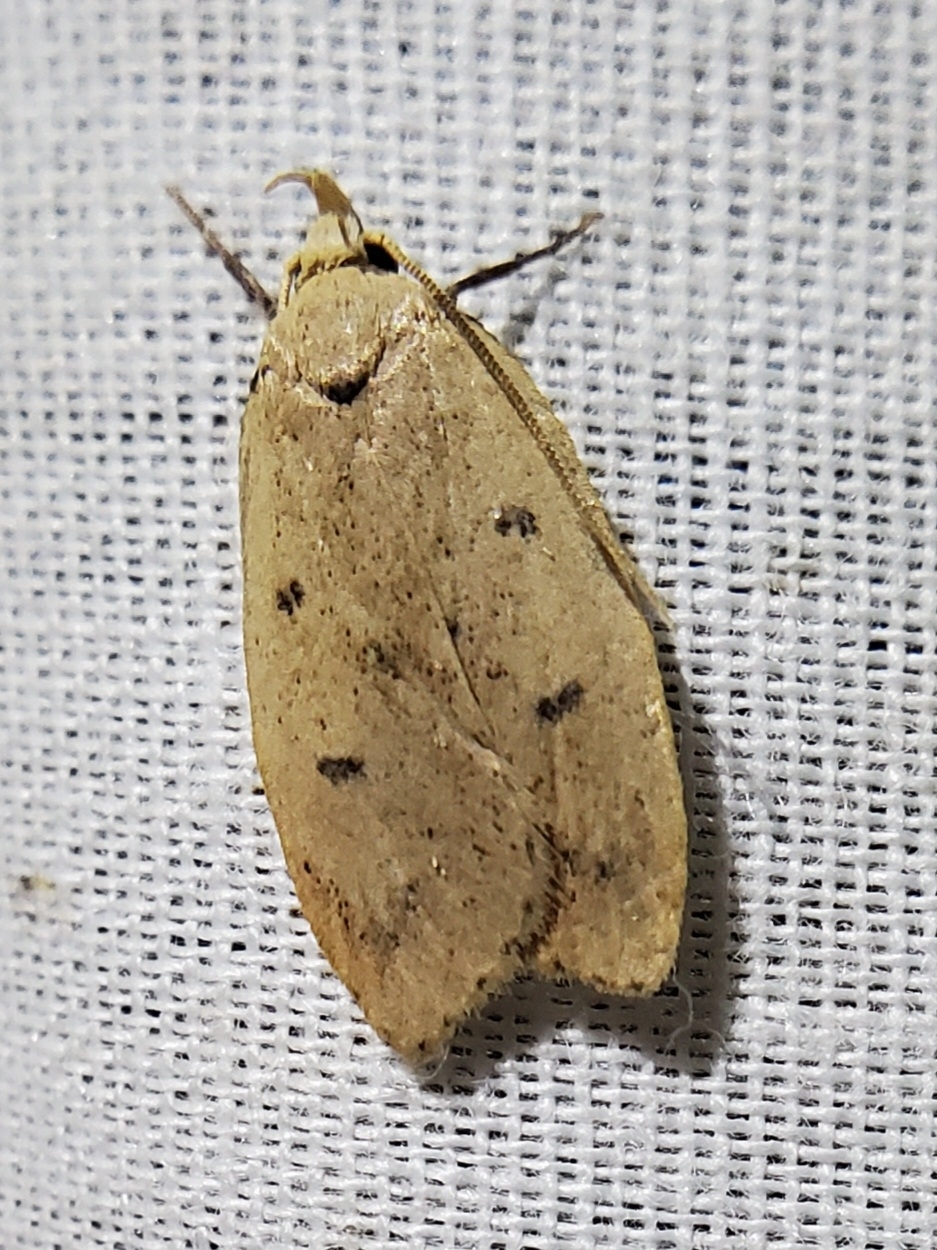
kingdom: Animalia
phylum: Arthropoda
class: Insecta
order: Lepidoptera
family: Peleopodidae
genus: Machimia
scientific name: Machimia tentoriferella
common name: Gold-striped leaftier moth
